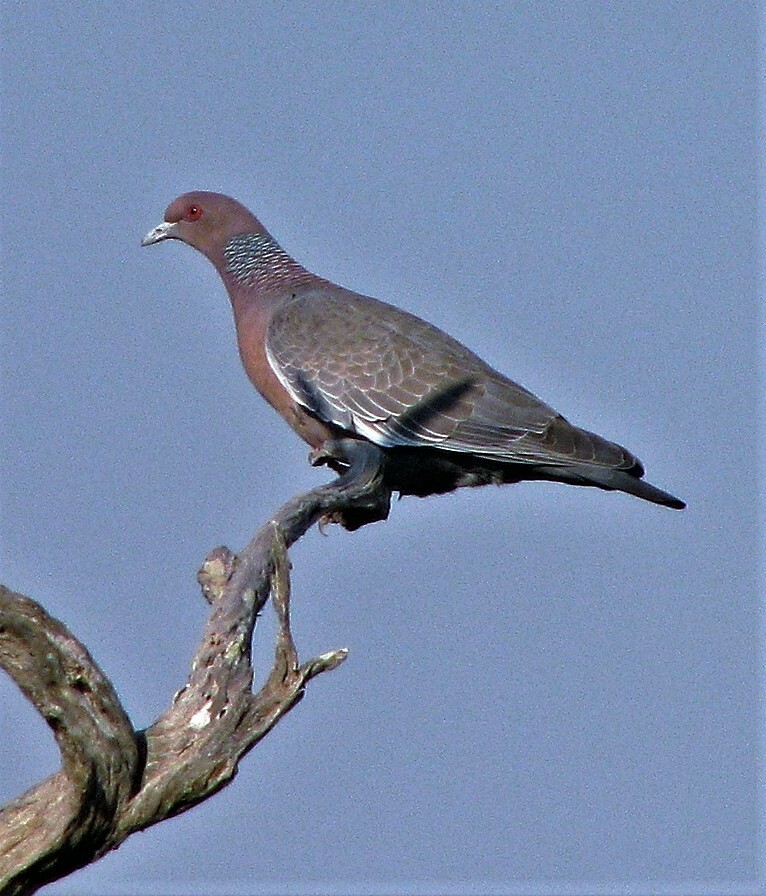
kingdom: Animalia
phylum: Chordata
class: Aves
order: Columbiformes
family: Columbidae
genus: Patagioenas
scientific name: Patagioenas picazuro
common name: Picazuro pigeon
